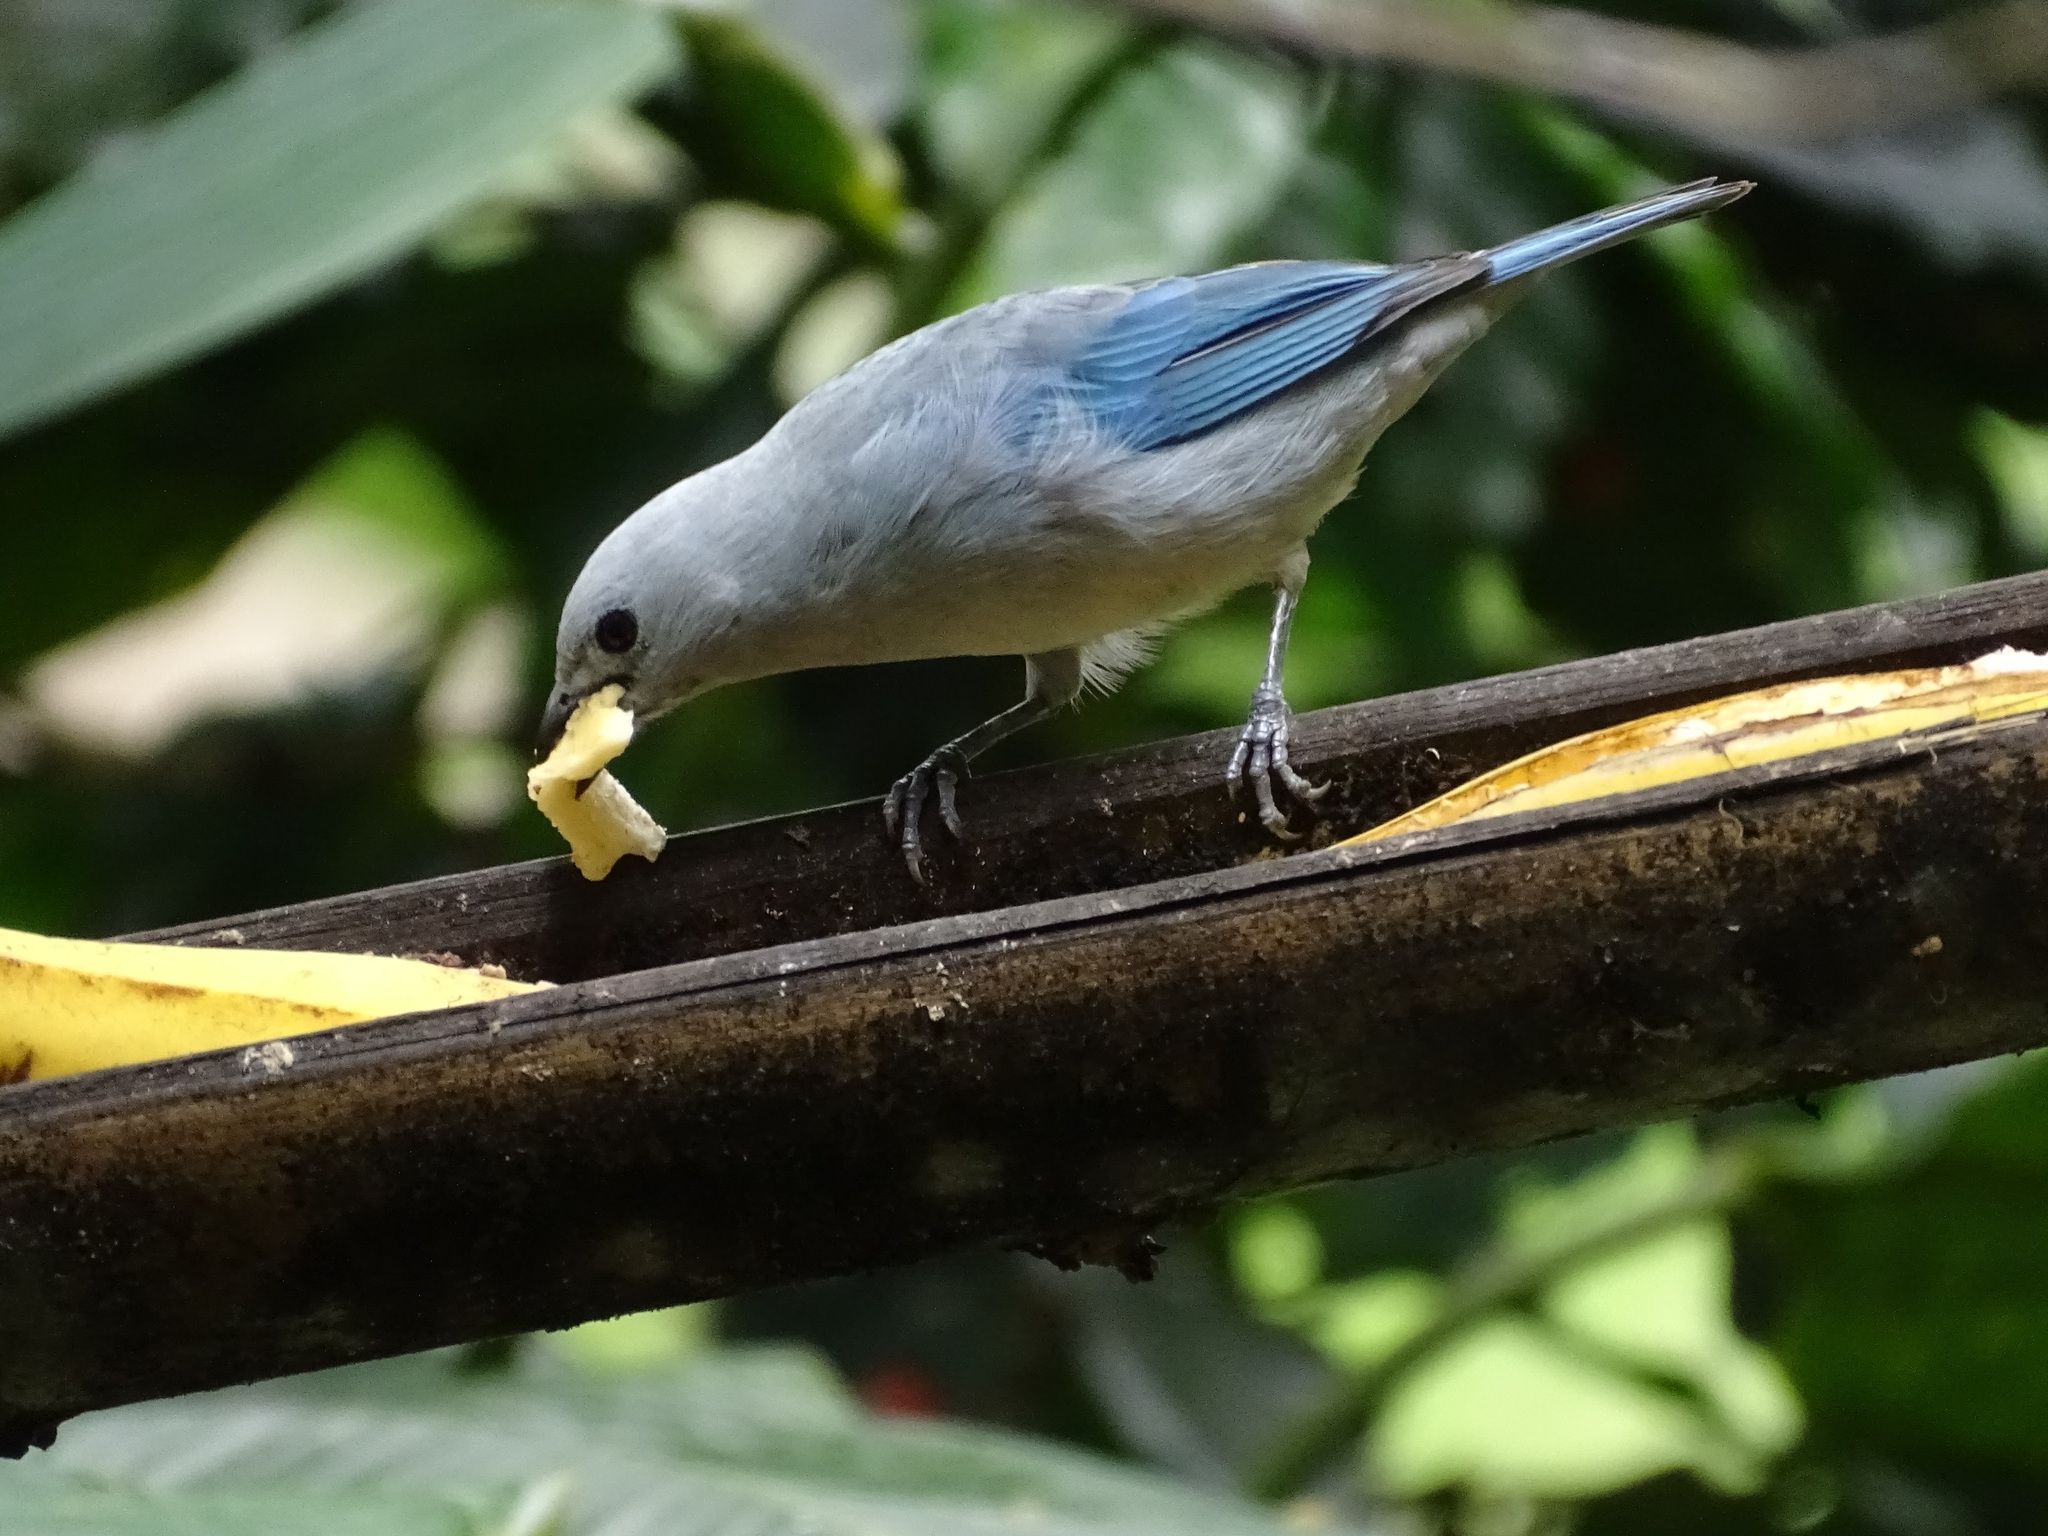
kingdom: Animalia
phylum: Chordata
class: Aves
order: Passeriformes
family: Thraupidae
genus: Thraupis
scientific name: Thraupis episcopus
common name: Blue-grey tanager
